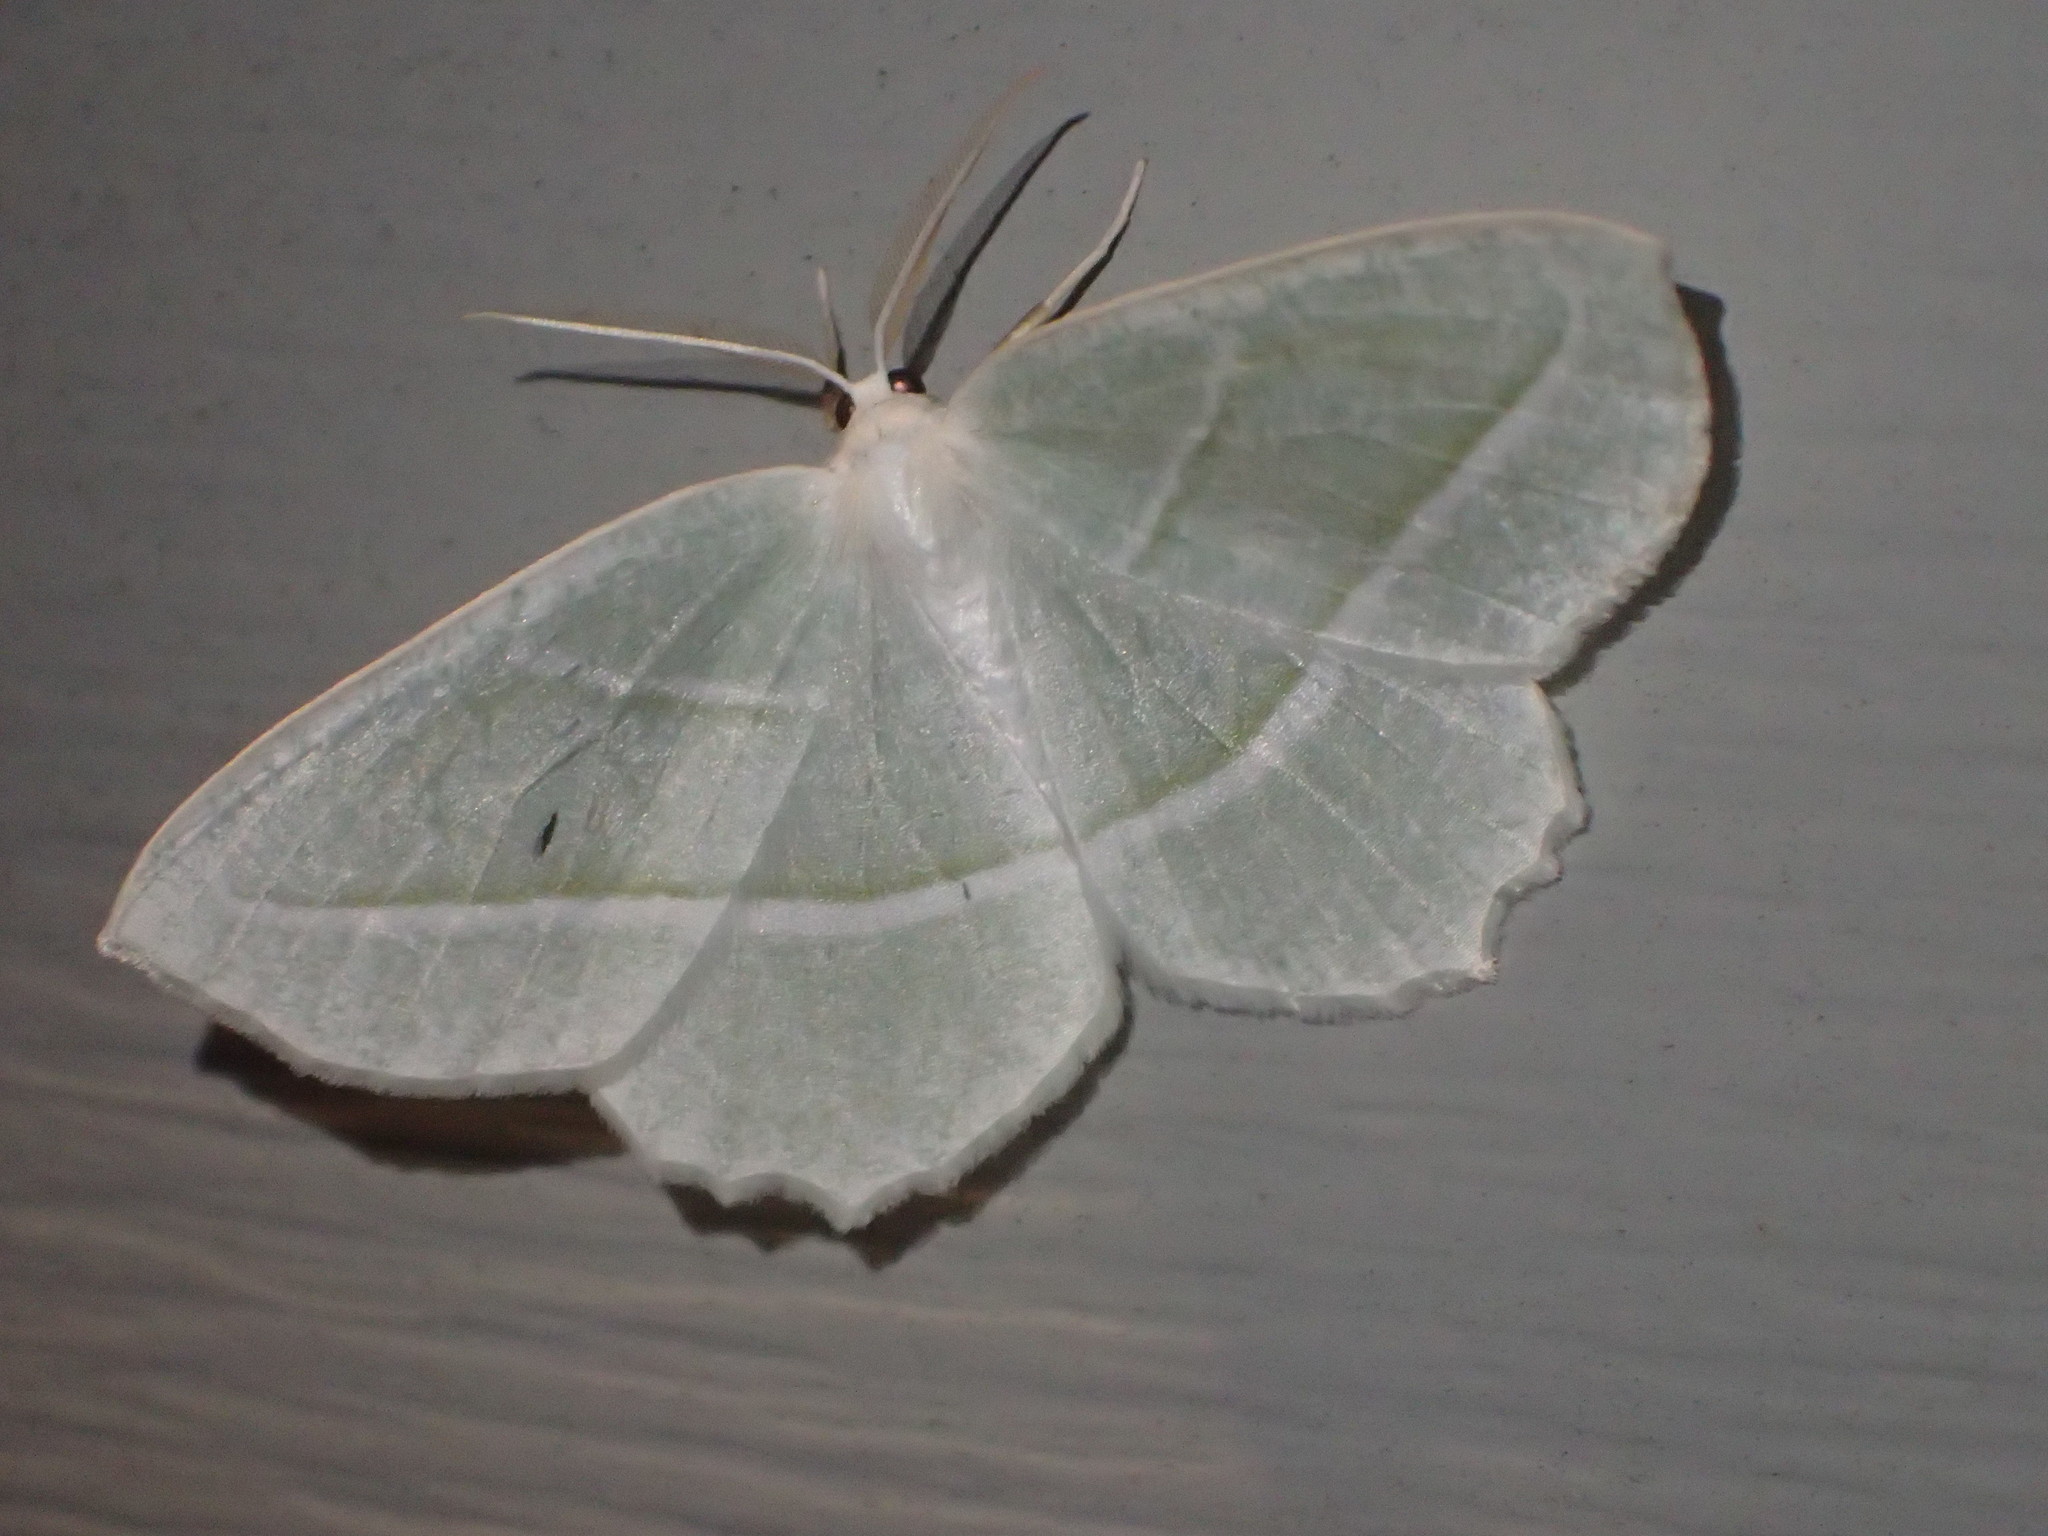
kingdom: Animalia
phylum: Arthropoda
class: Insecta
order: Lepidoptera
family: Geometridae
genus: Campaea
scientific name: Campaea perlata
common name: Fringed looper
